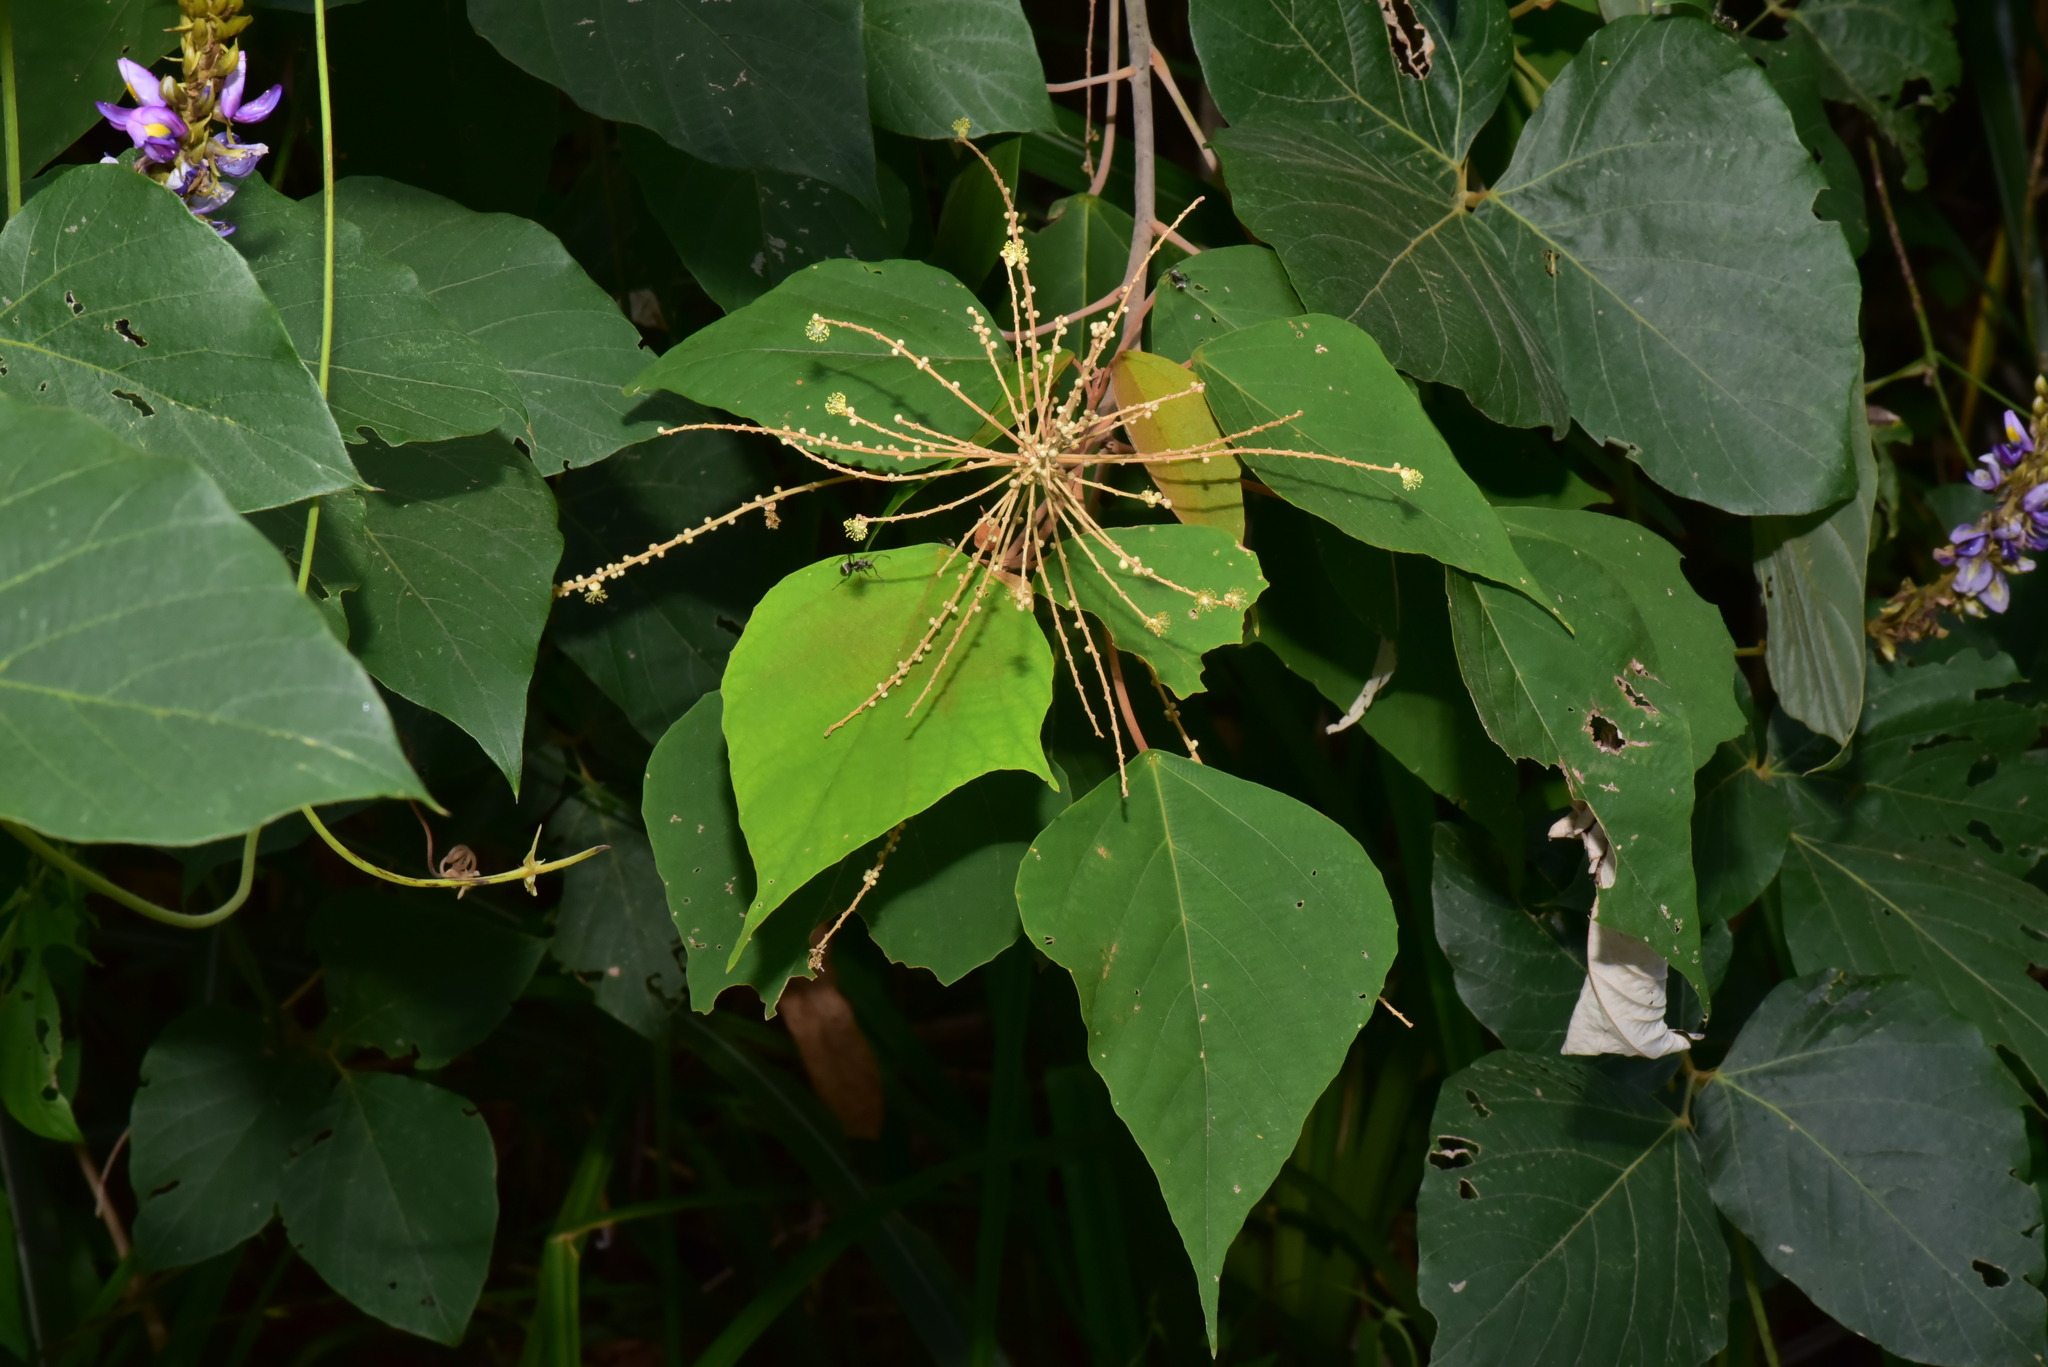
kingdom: Plantae
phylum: Tracheophyta
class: Magnoliopsida
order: Fabales
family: Fabaceae
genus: Pueraria
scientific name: Pueraria montana
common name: Kudzu
